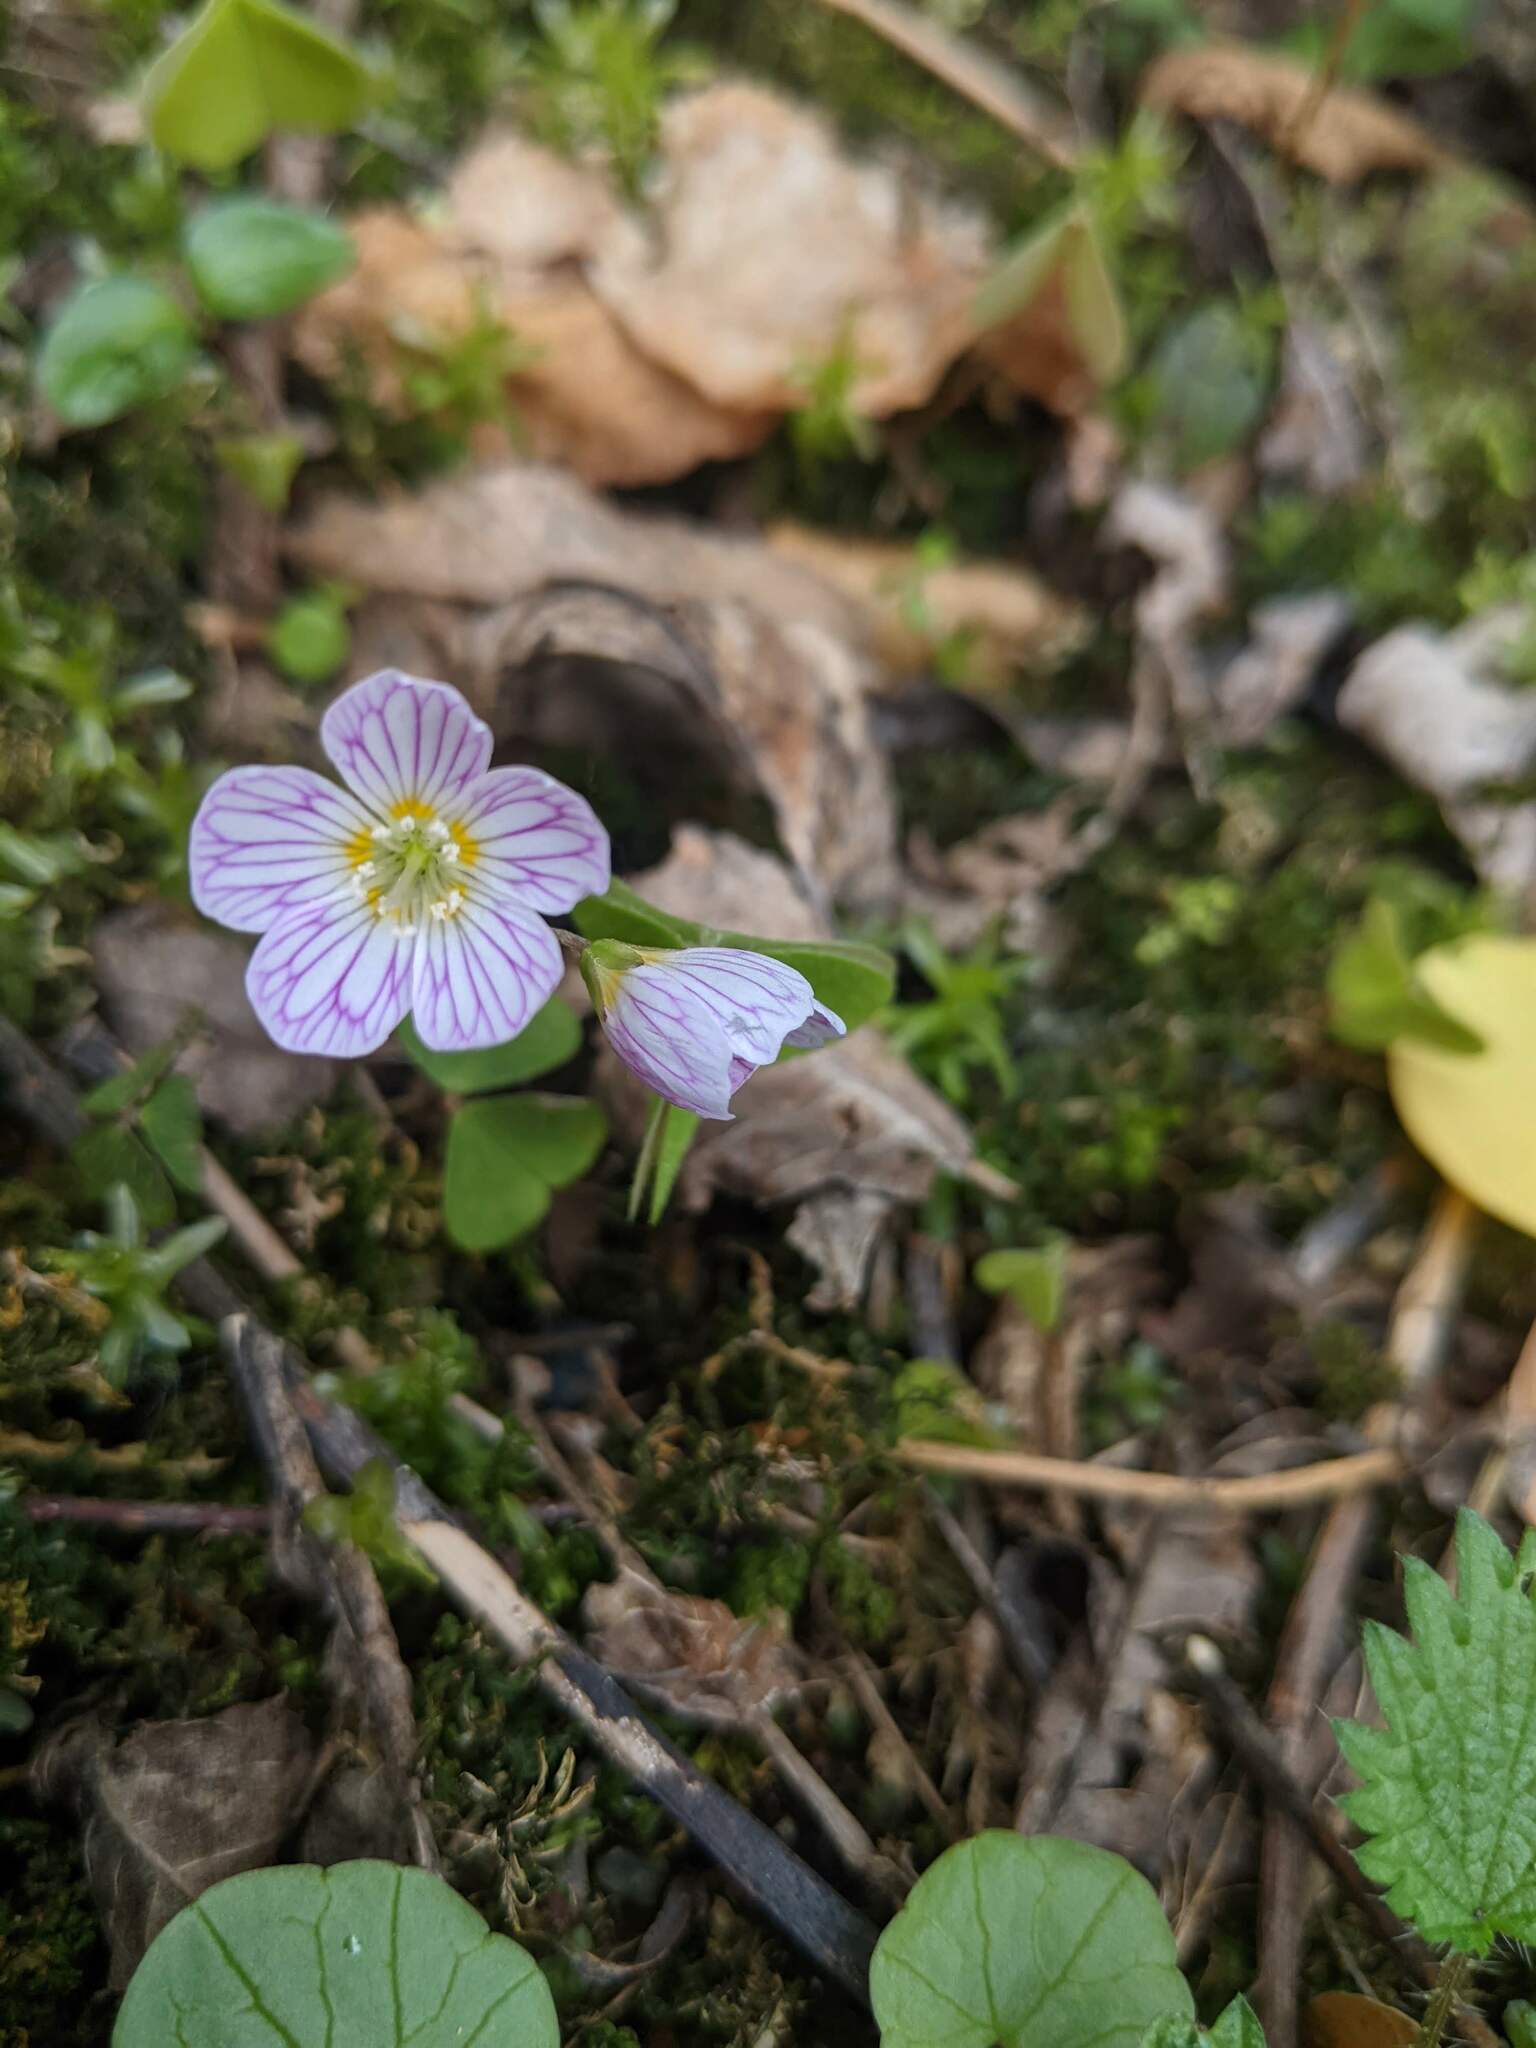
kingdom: Plantae
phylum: Tracheophyta
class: Magnoliopsida
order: Oxalidales
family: Oxalidaceae
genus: Oxalis
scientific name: Oxalis acetosella
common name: Wood-sorrel
